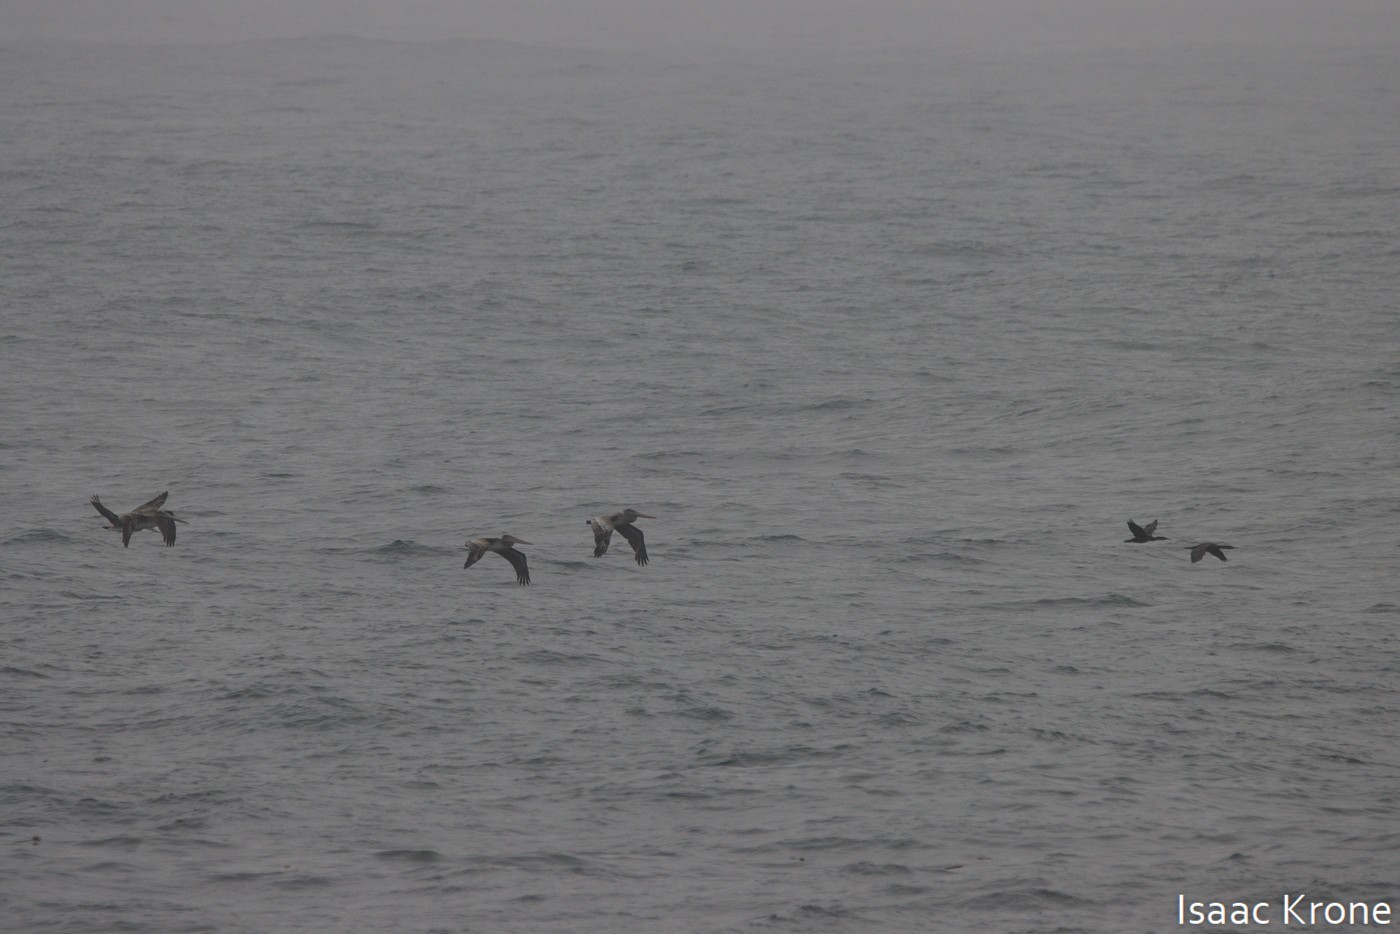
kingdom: Animalia
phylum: Chordata
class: Aves
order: Pelecaniformes
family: Pelecanidae
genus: Pelecanus
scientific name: Pelecanus occidentalis
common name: Brown pelican
